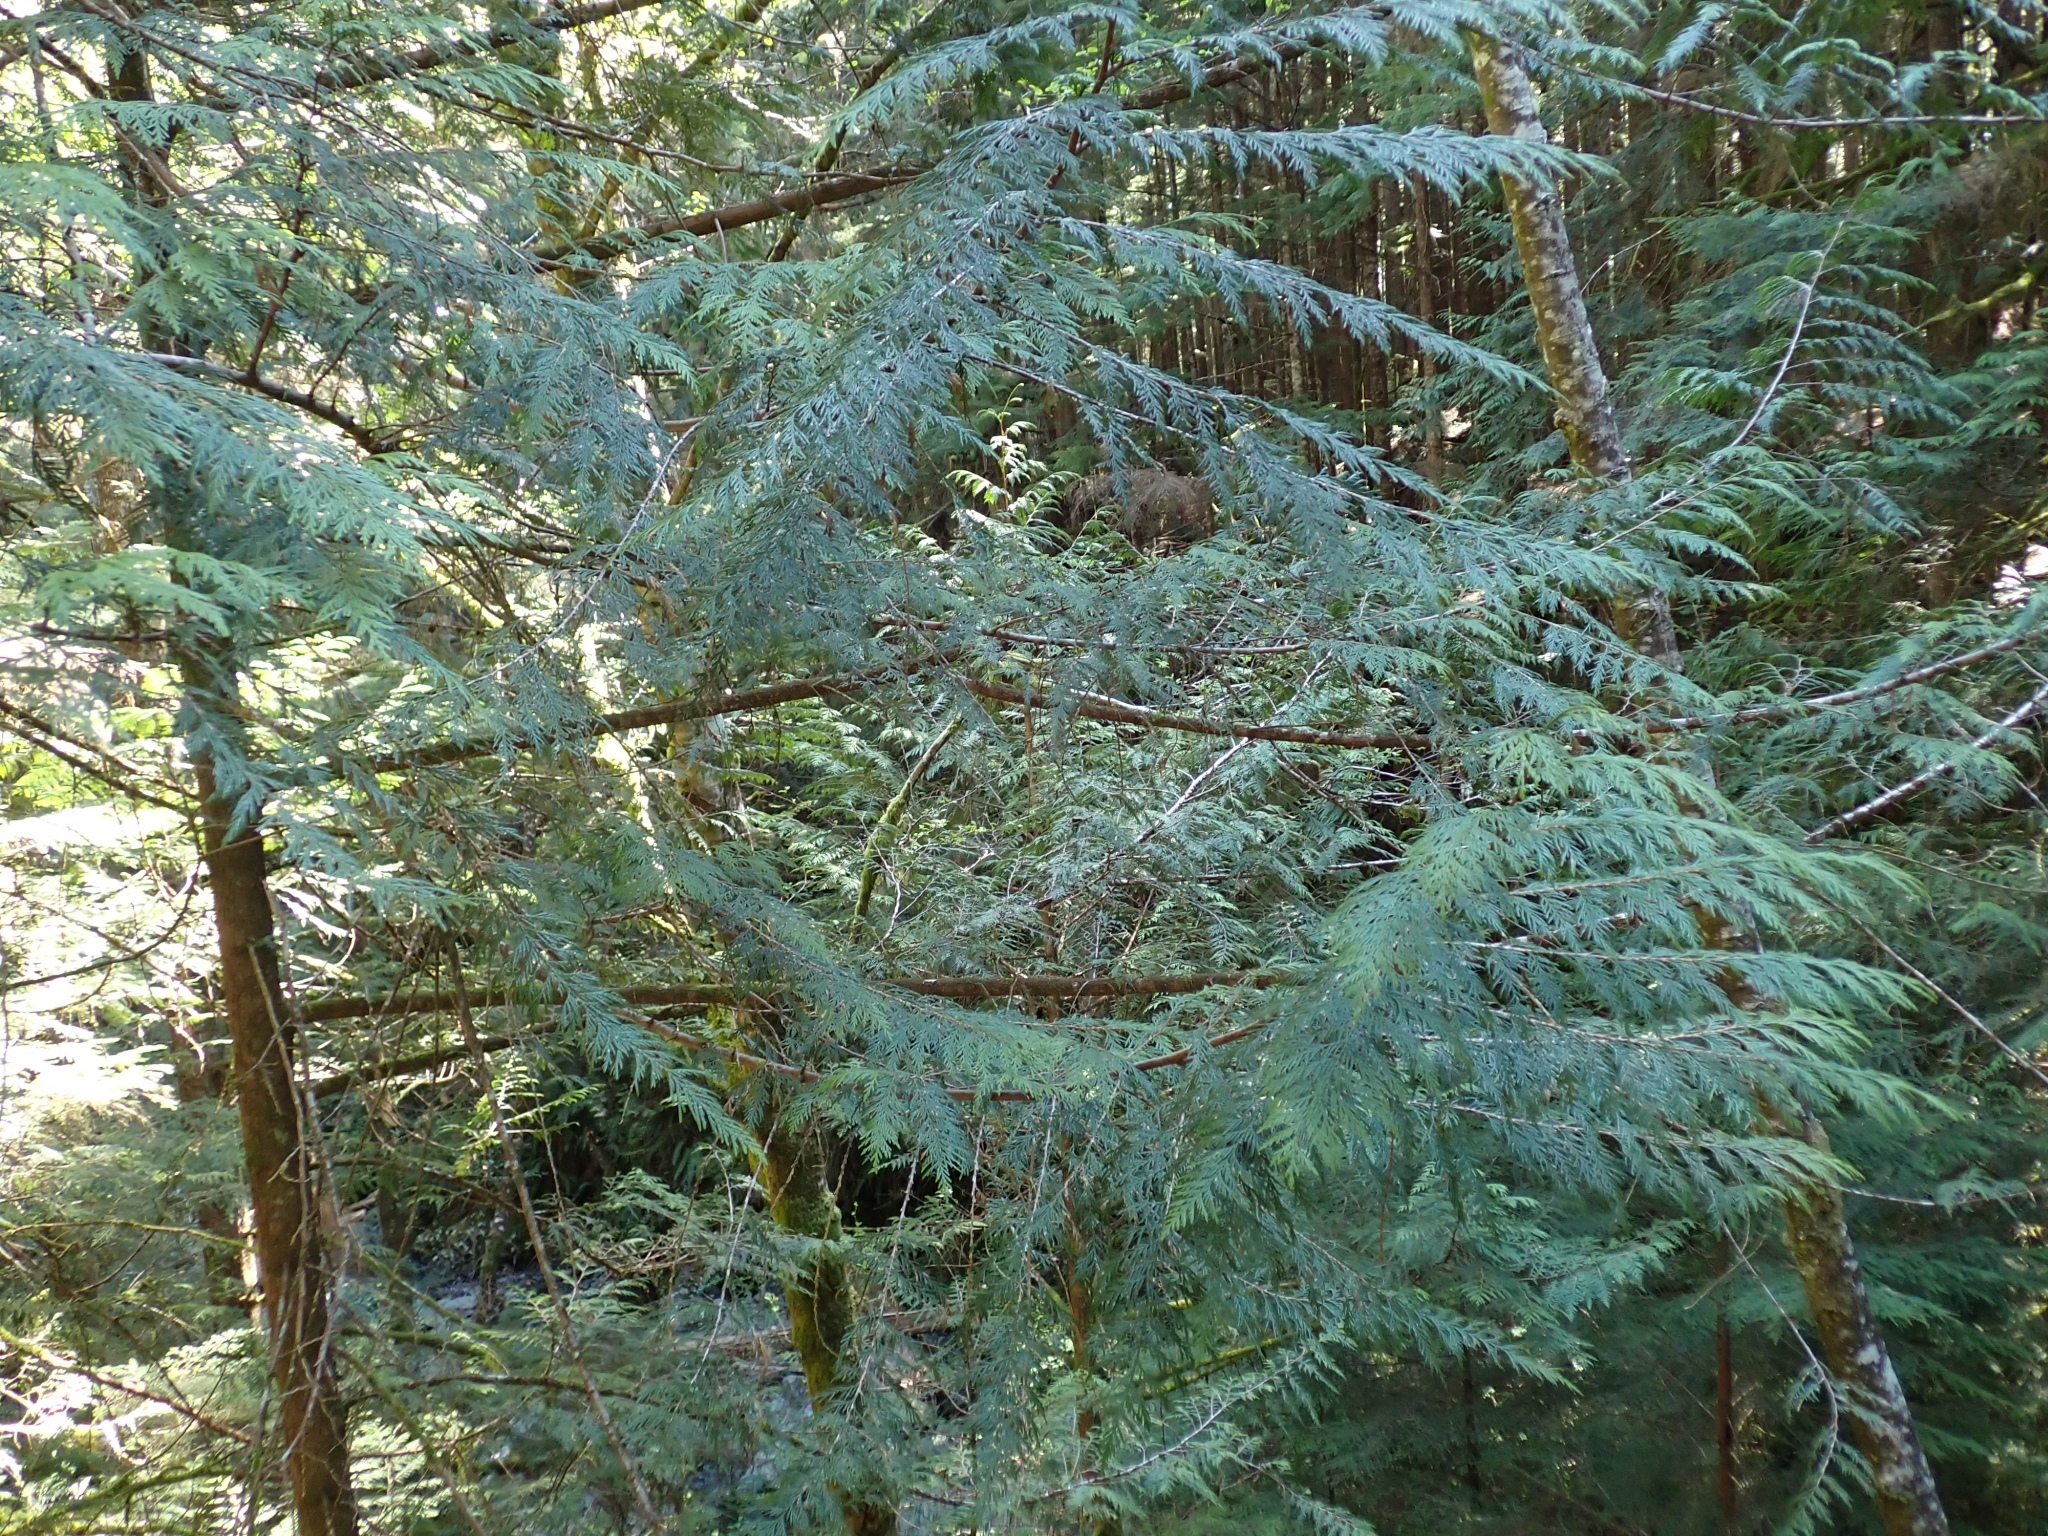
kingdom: Plantae
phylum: Tracheophyta
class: Pinopsida
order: Pinales
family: Cupressaceae
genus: Thuja
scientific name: Thuja plicata
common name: Western red-cedar
